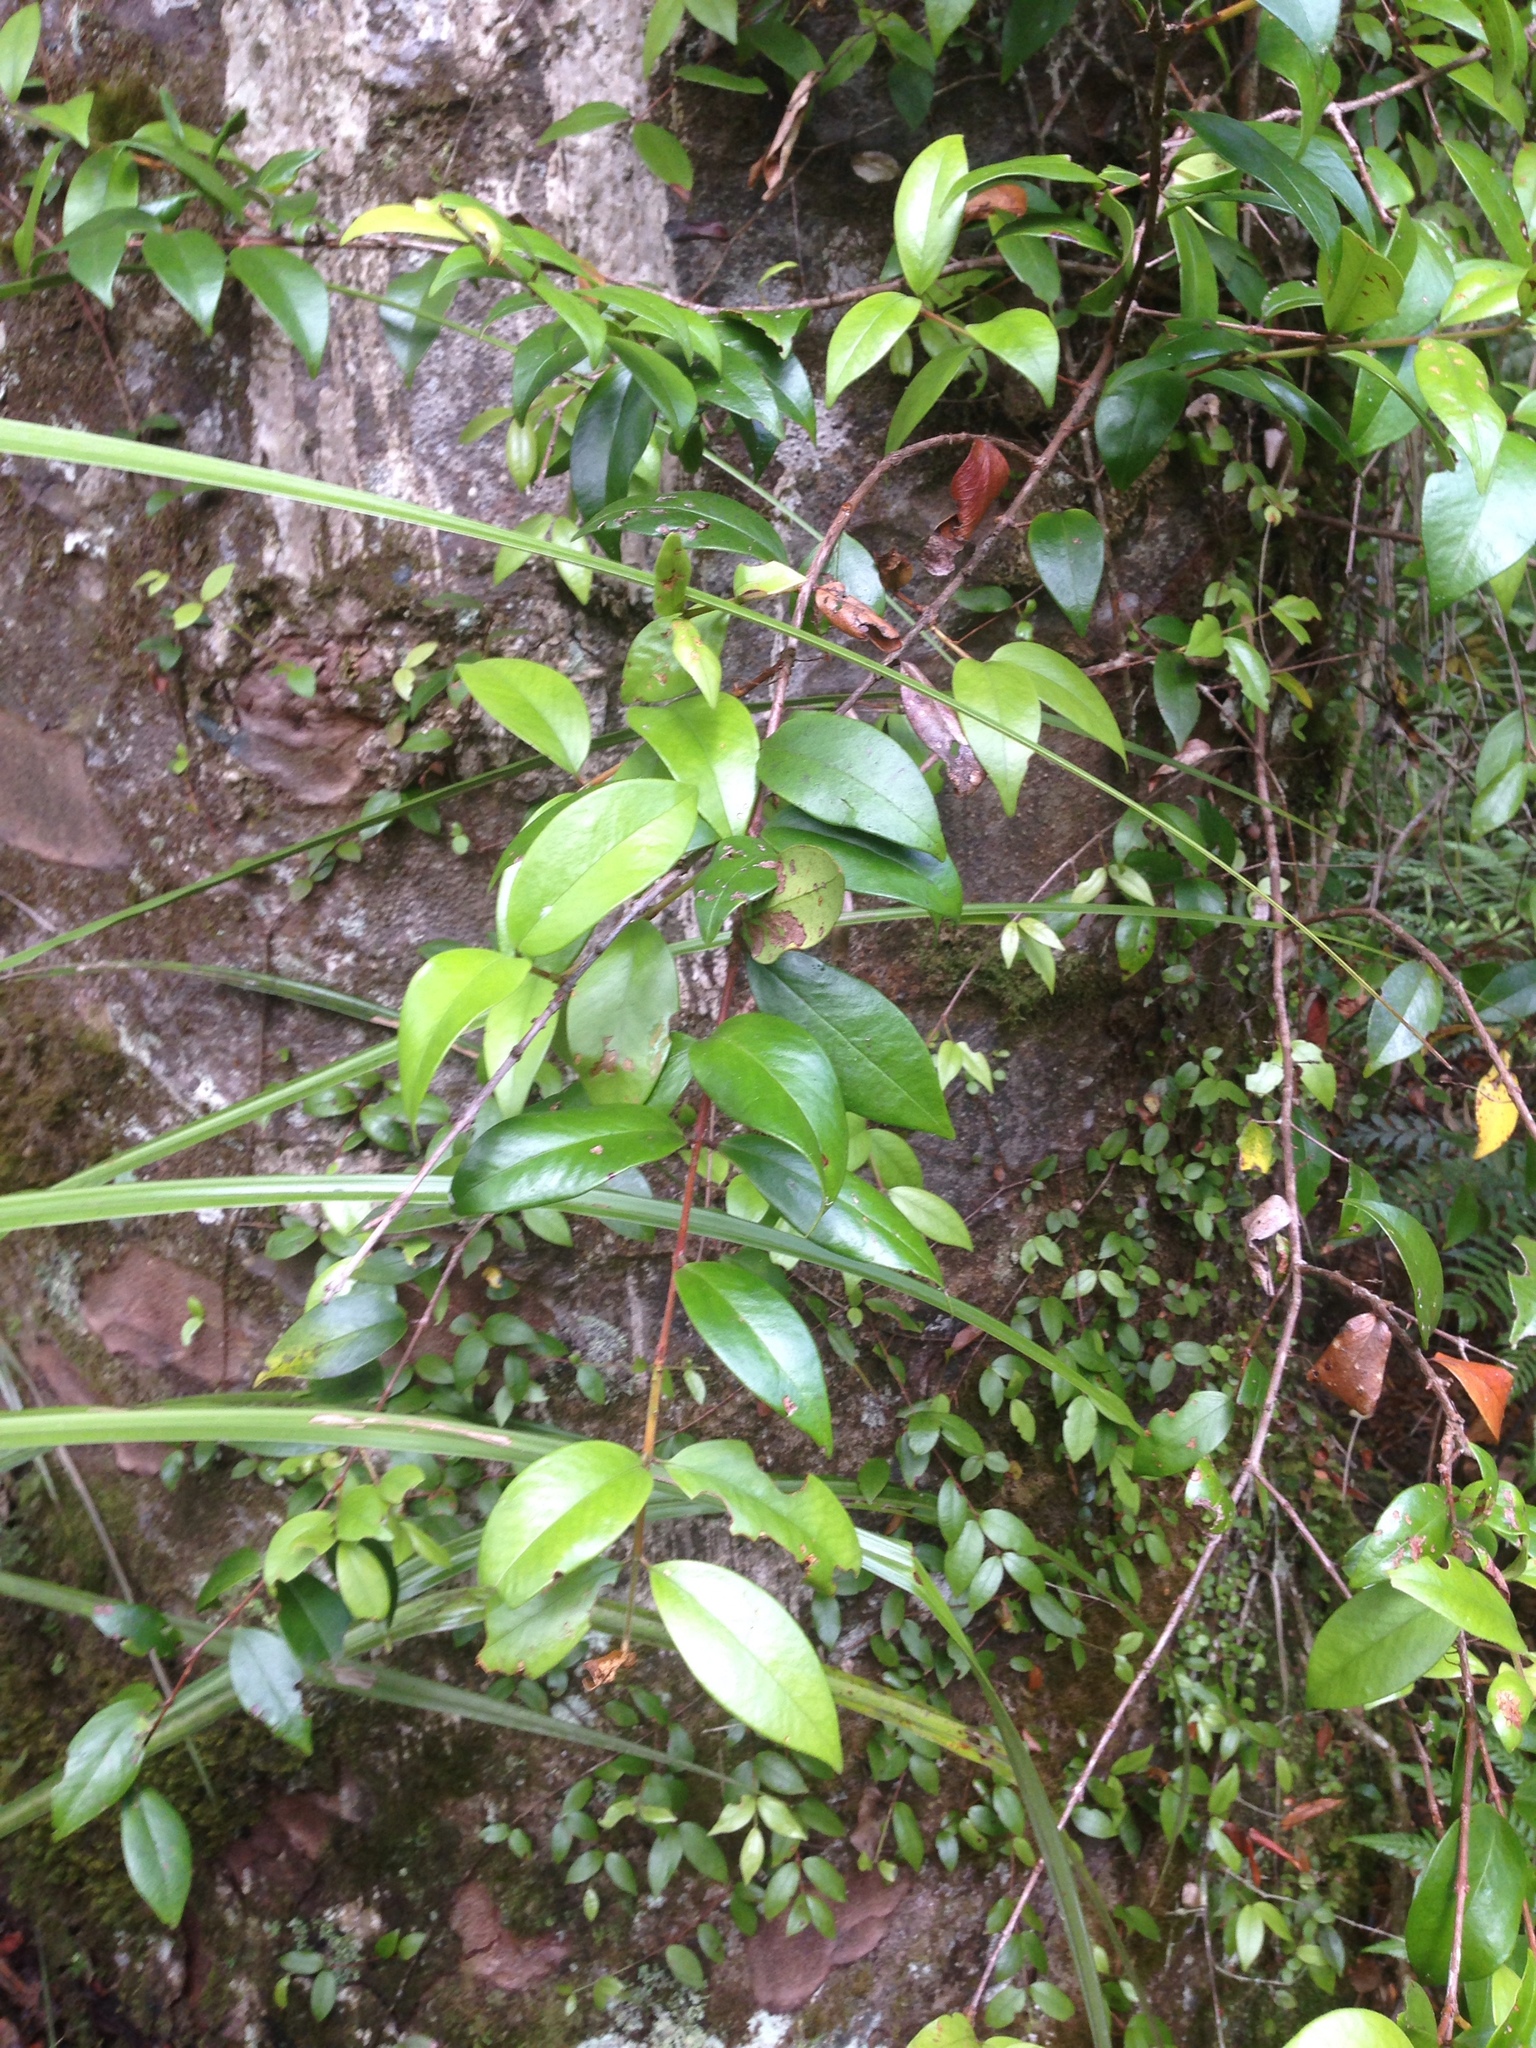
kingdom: Plantae
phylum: Tracheophyta
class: Magnoliopsida
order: Myrtales
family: Myrtaceae
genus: Metrosideros
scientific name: Metrosideros albiflora
